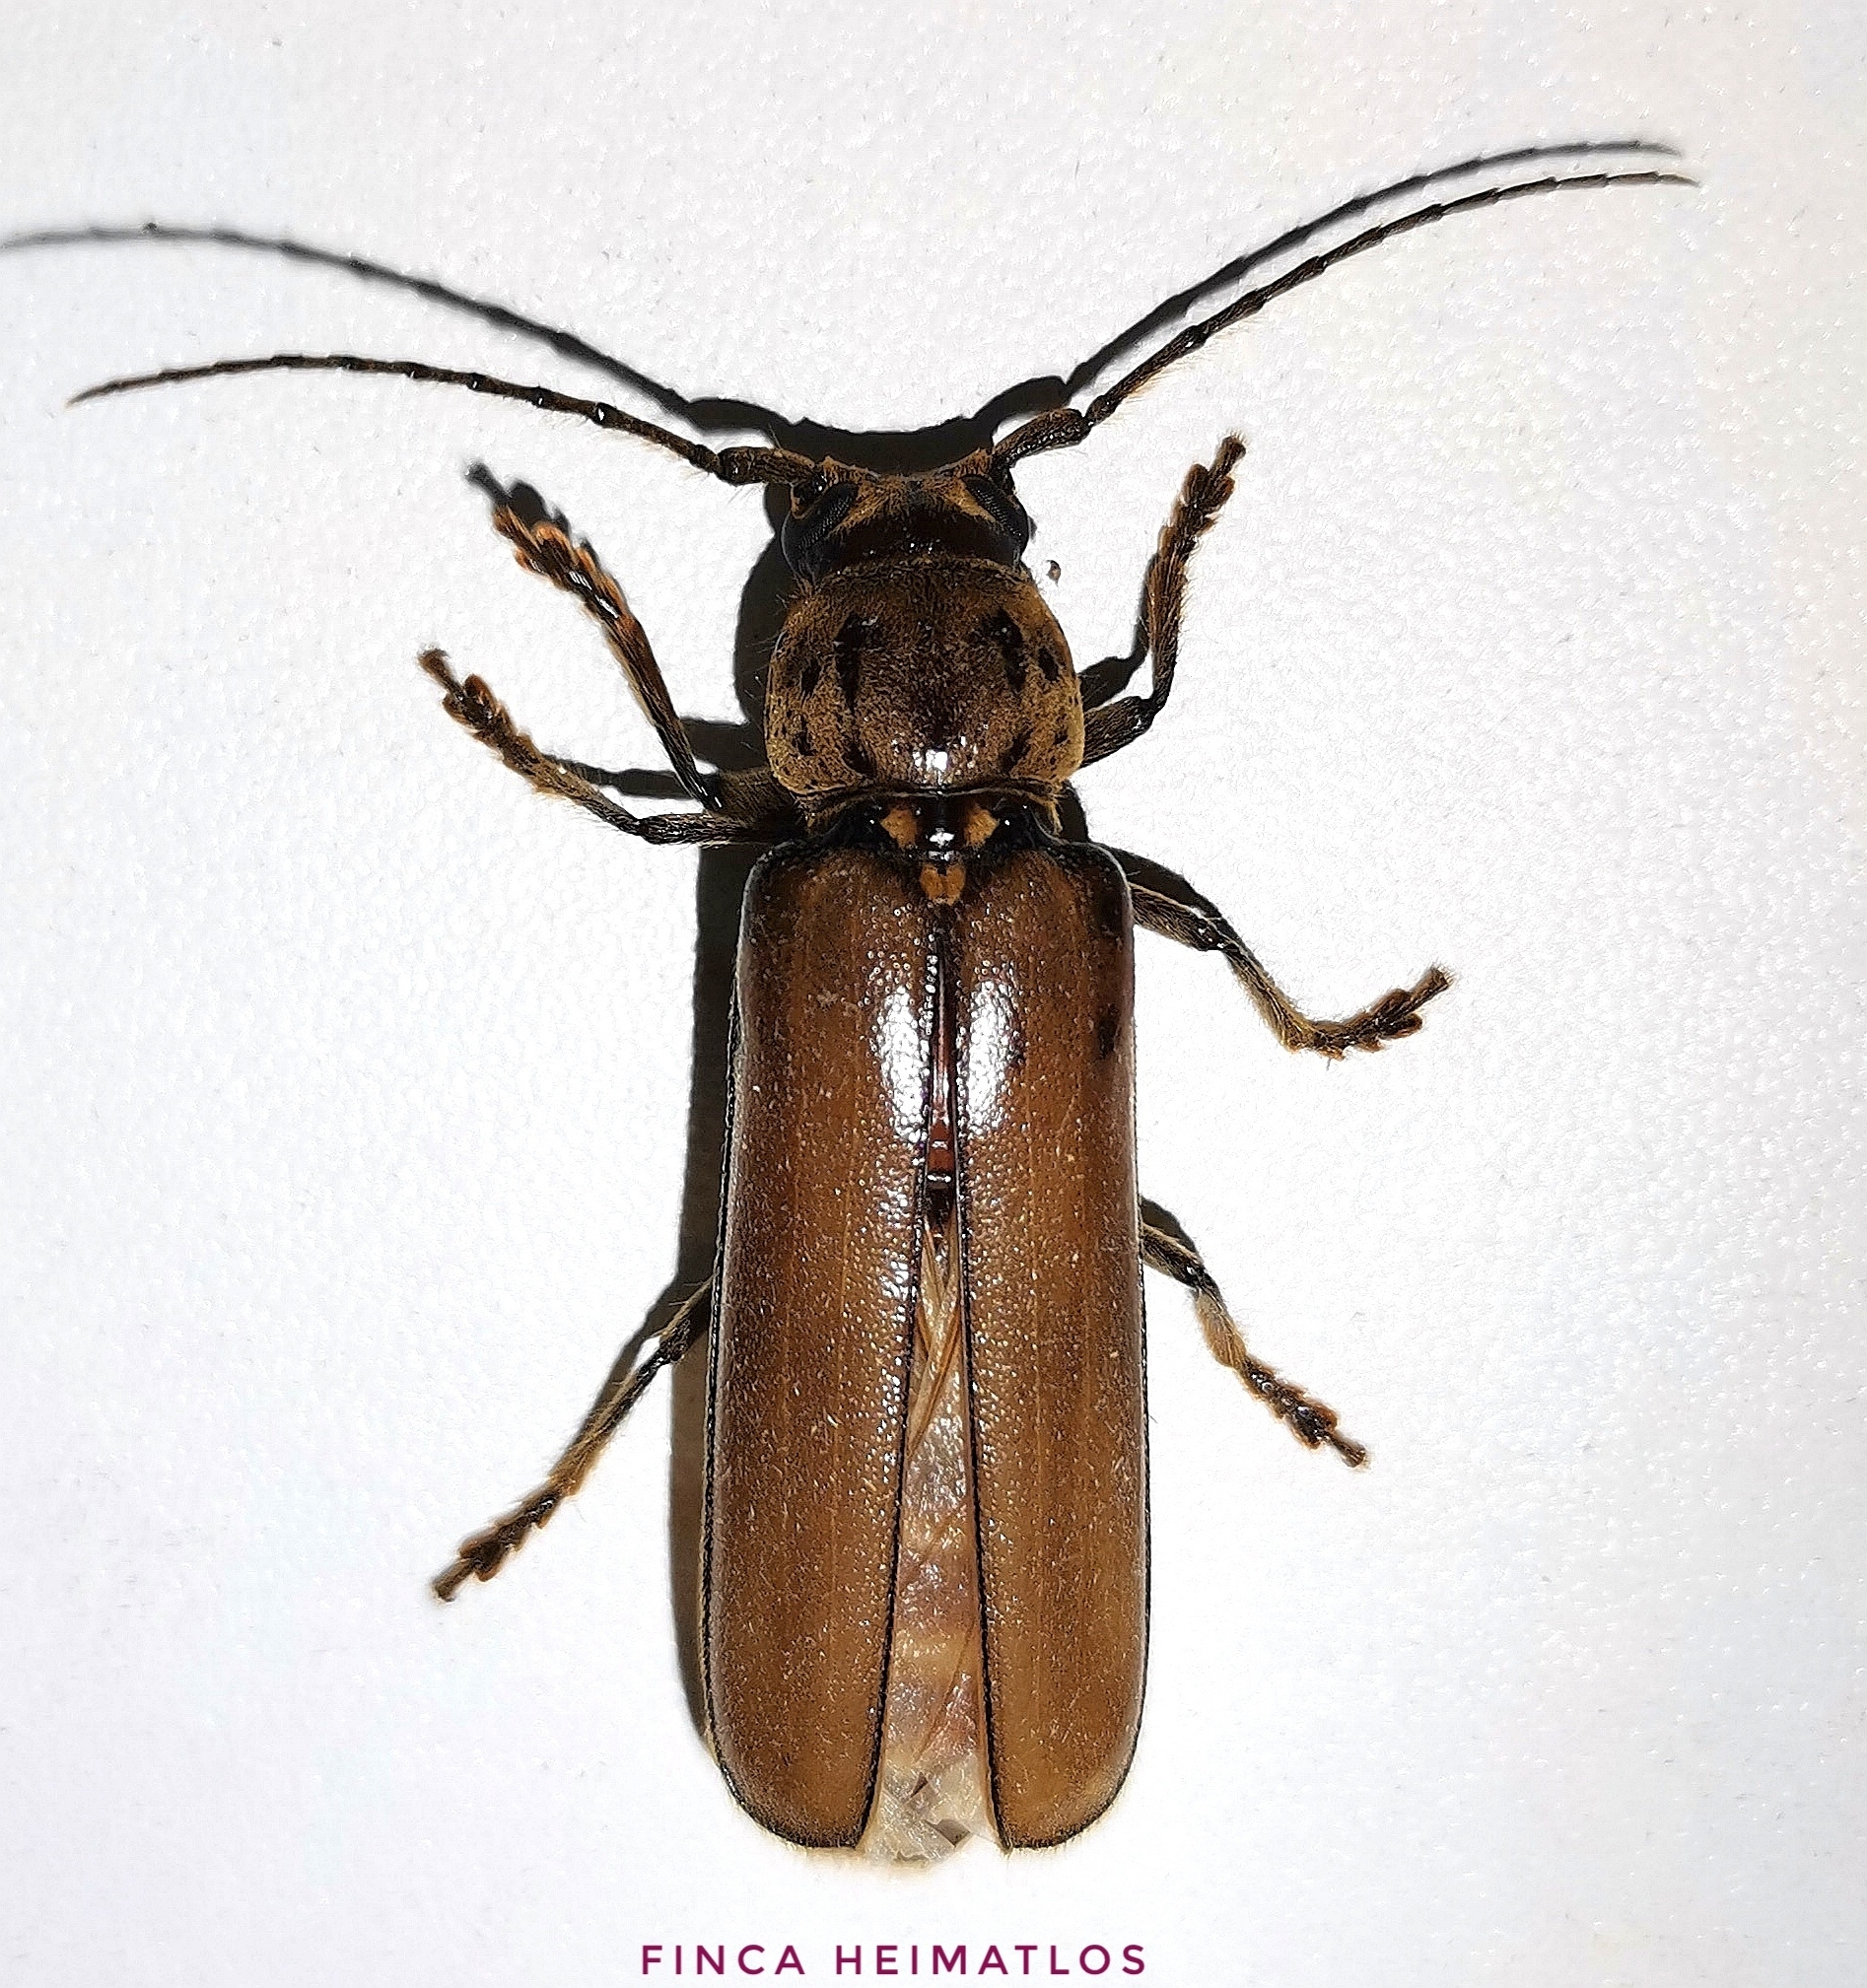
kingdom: Animalia
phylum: Arthropoda
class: Insecta
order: Coleoptera
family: Cerambycidae
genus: Diploschema
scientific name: Diploschema weyrauchi
